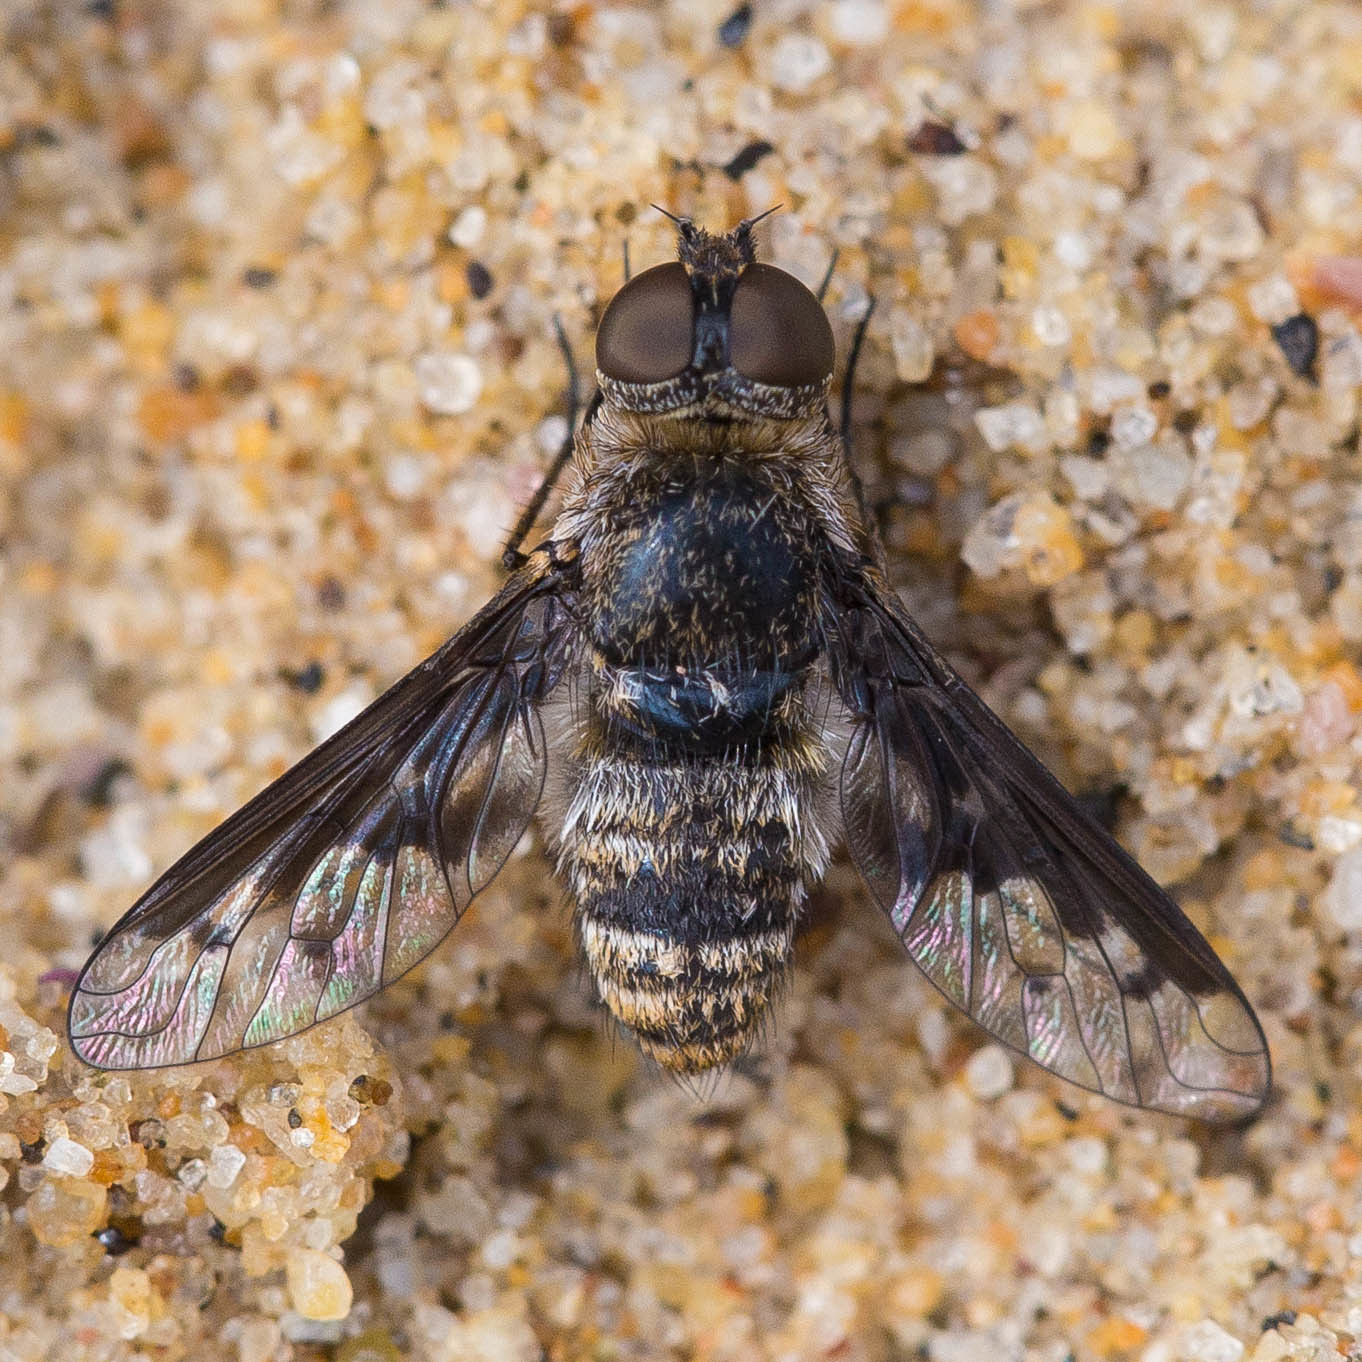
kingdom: Animalia
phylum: Arthropoda
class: Insecta
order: Diptera
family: Bombyliidae
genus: Chrysanthrax
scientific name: Chrysanthrax cautor
